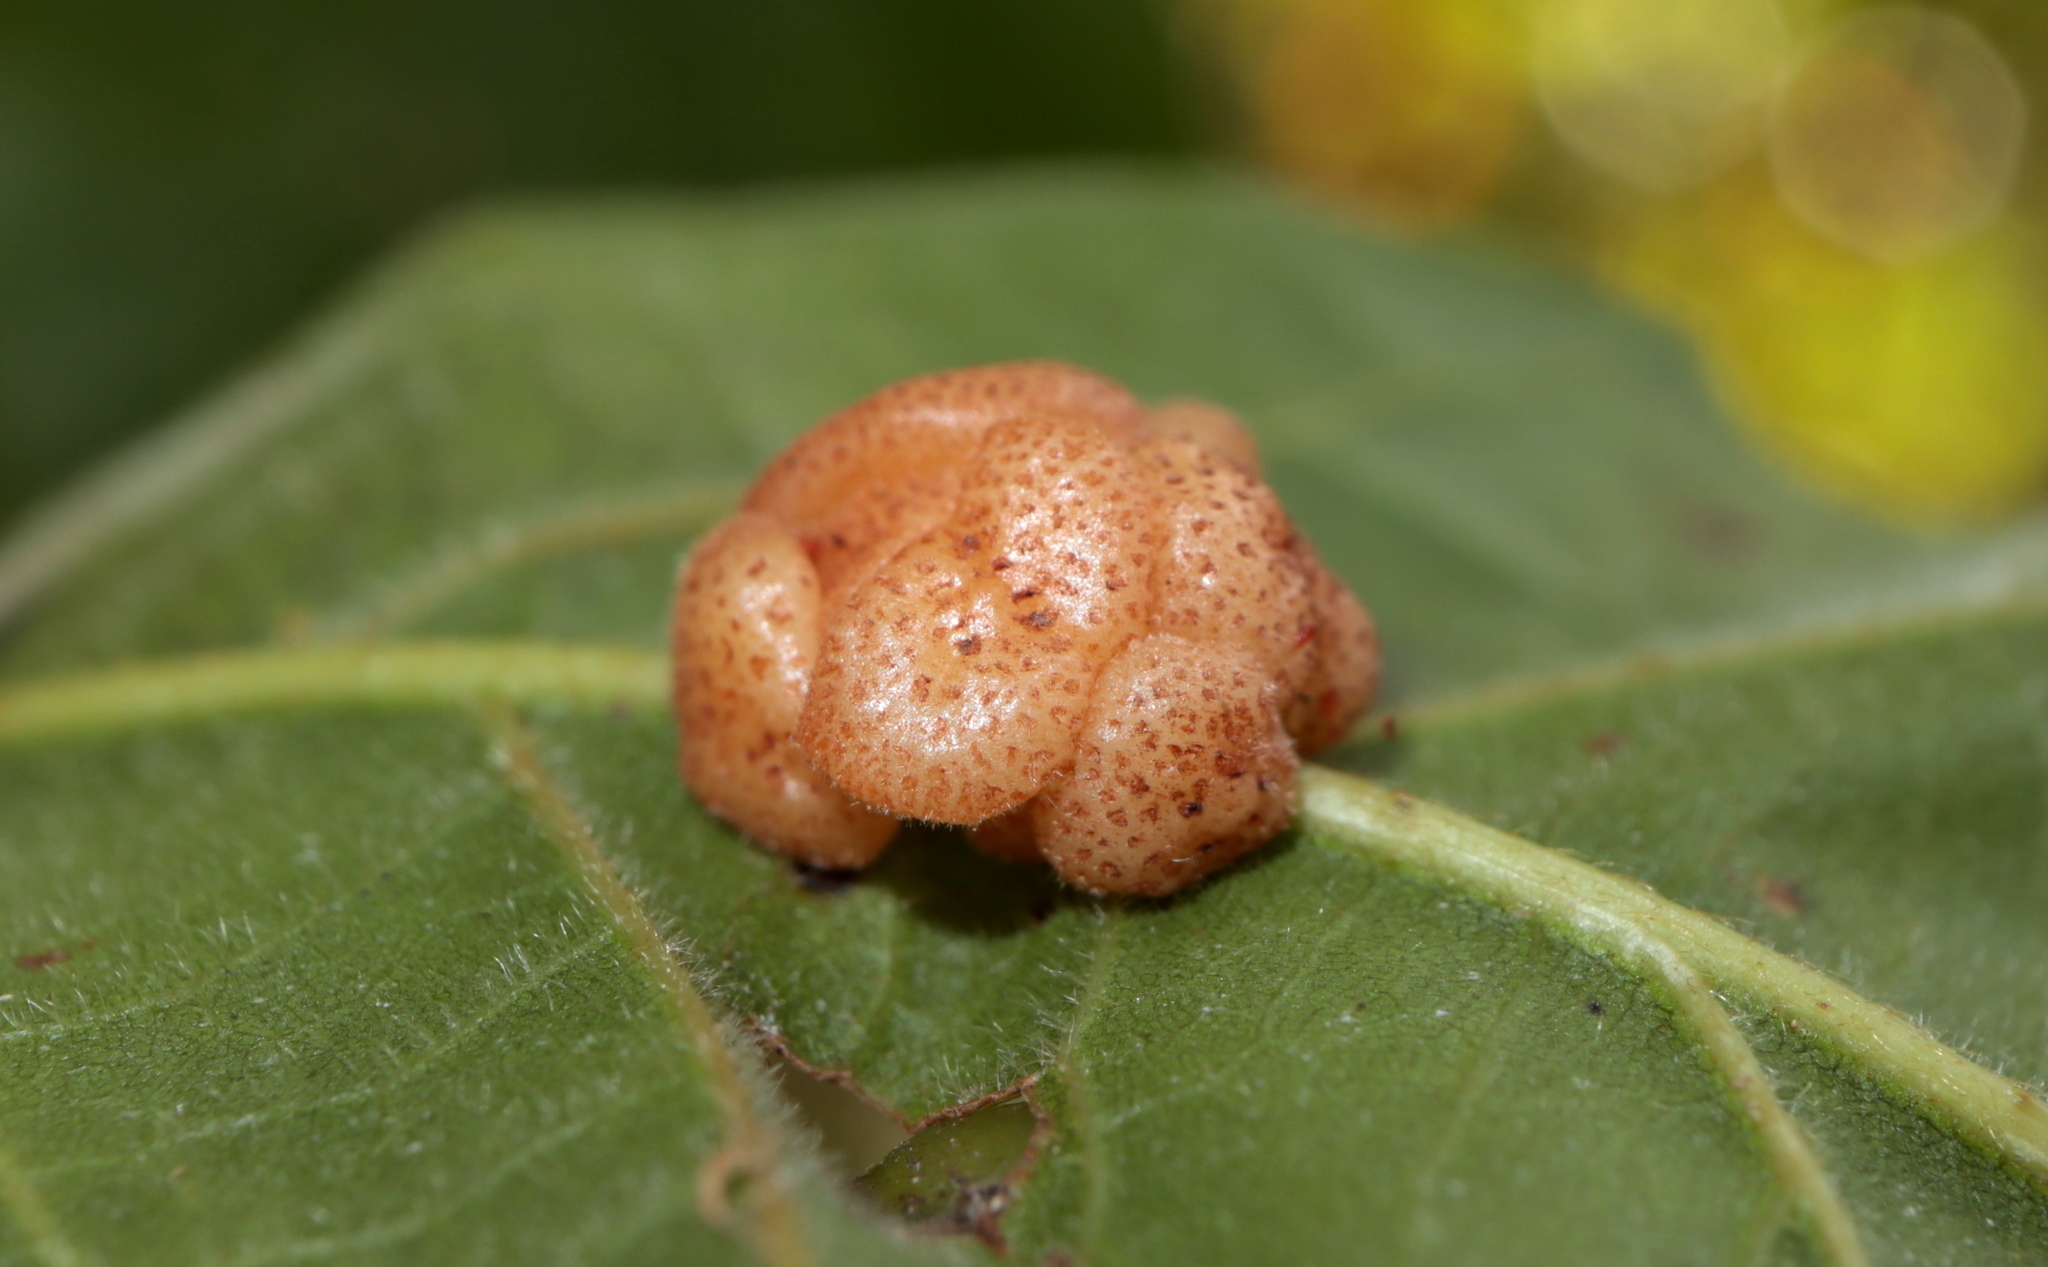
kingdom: Animalia
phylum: Arthropoda
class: Insecta
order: Hymenoptera
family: Cynipidae
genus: Andricus
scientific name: Andricus
